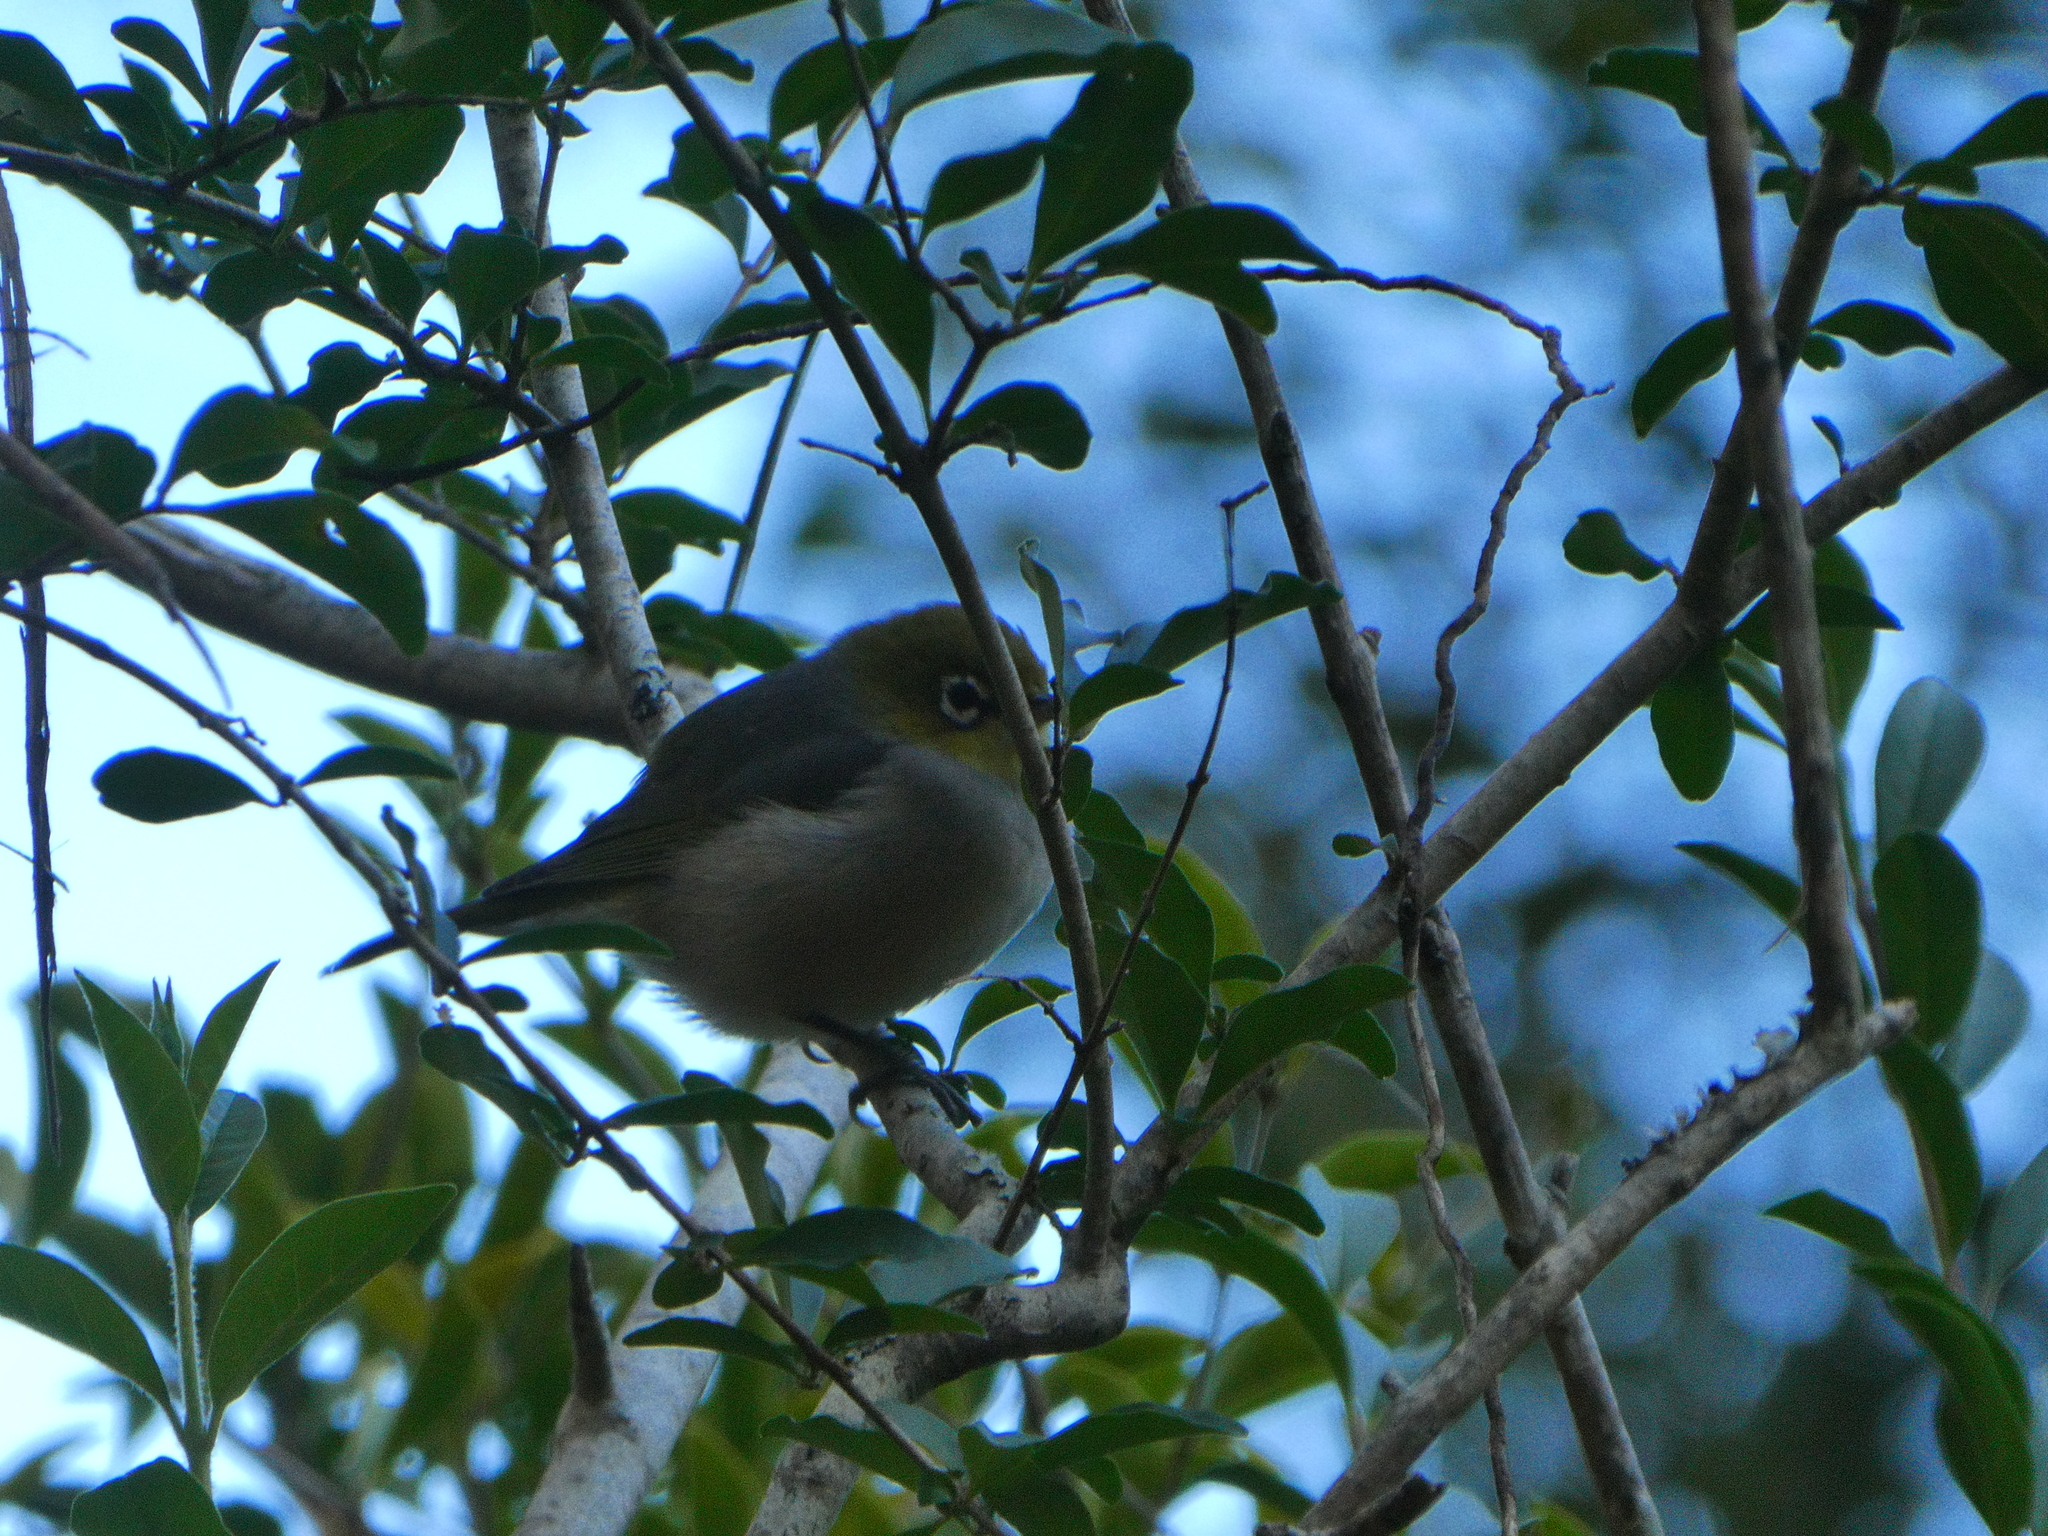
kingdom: Animalia
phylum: Chordata
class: Aves
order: Passeriformes
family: Zosteropidae
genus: Zosterops
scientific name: Zosterops lateralis
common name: Silvereye
